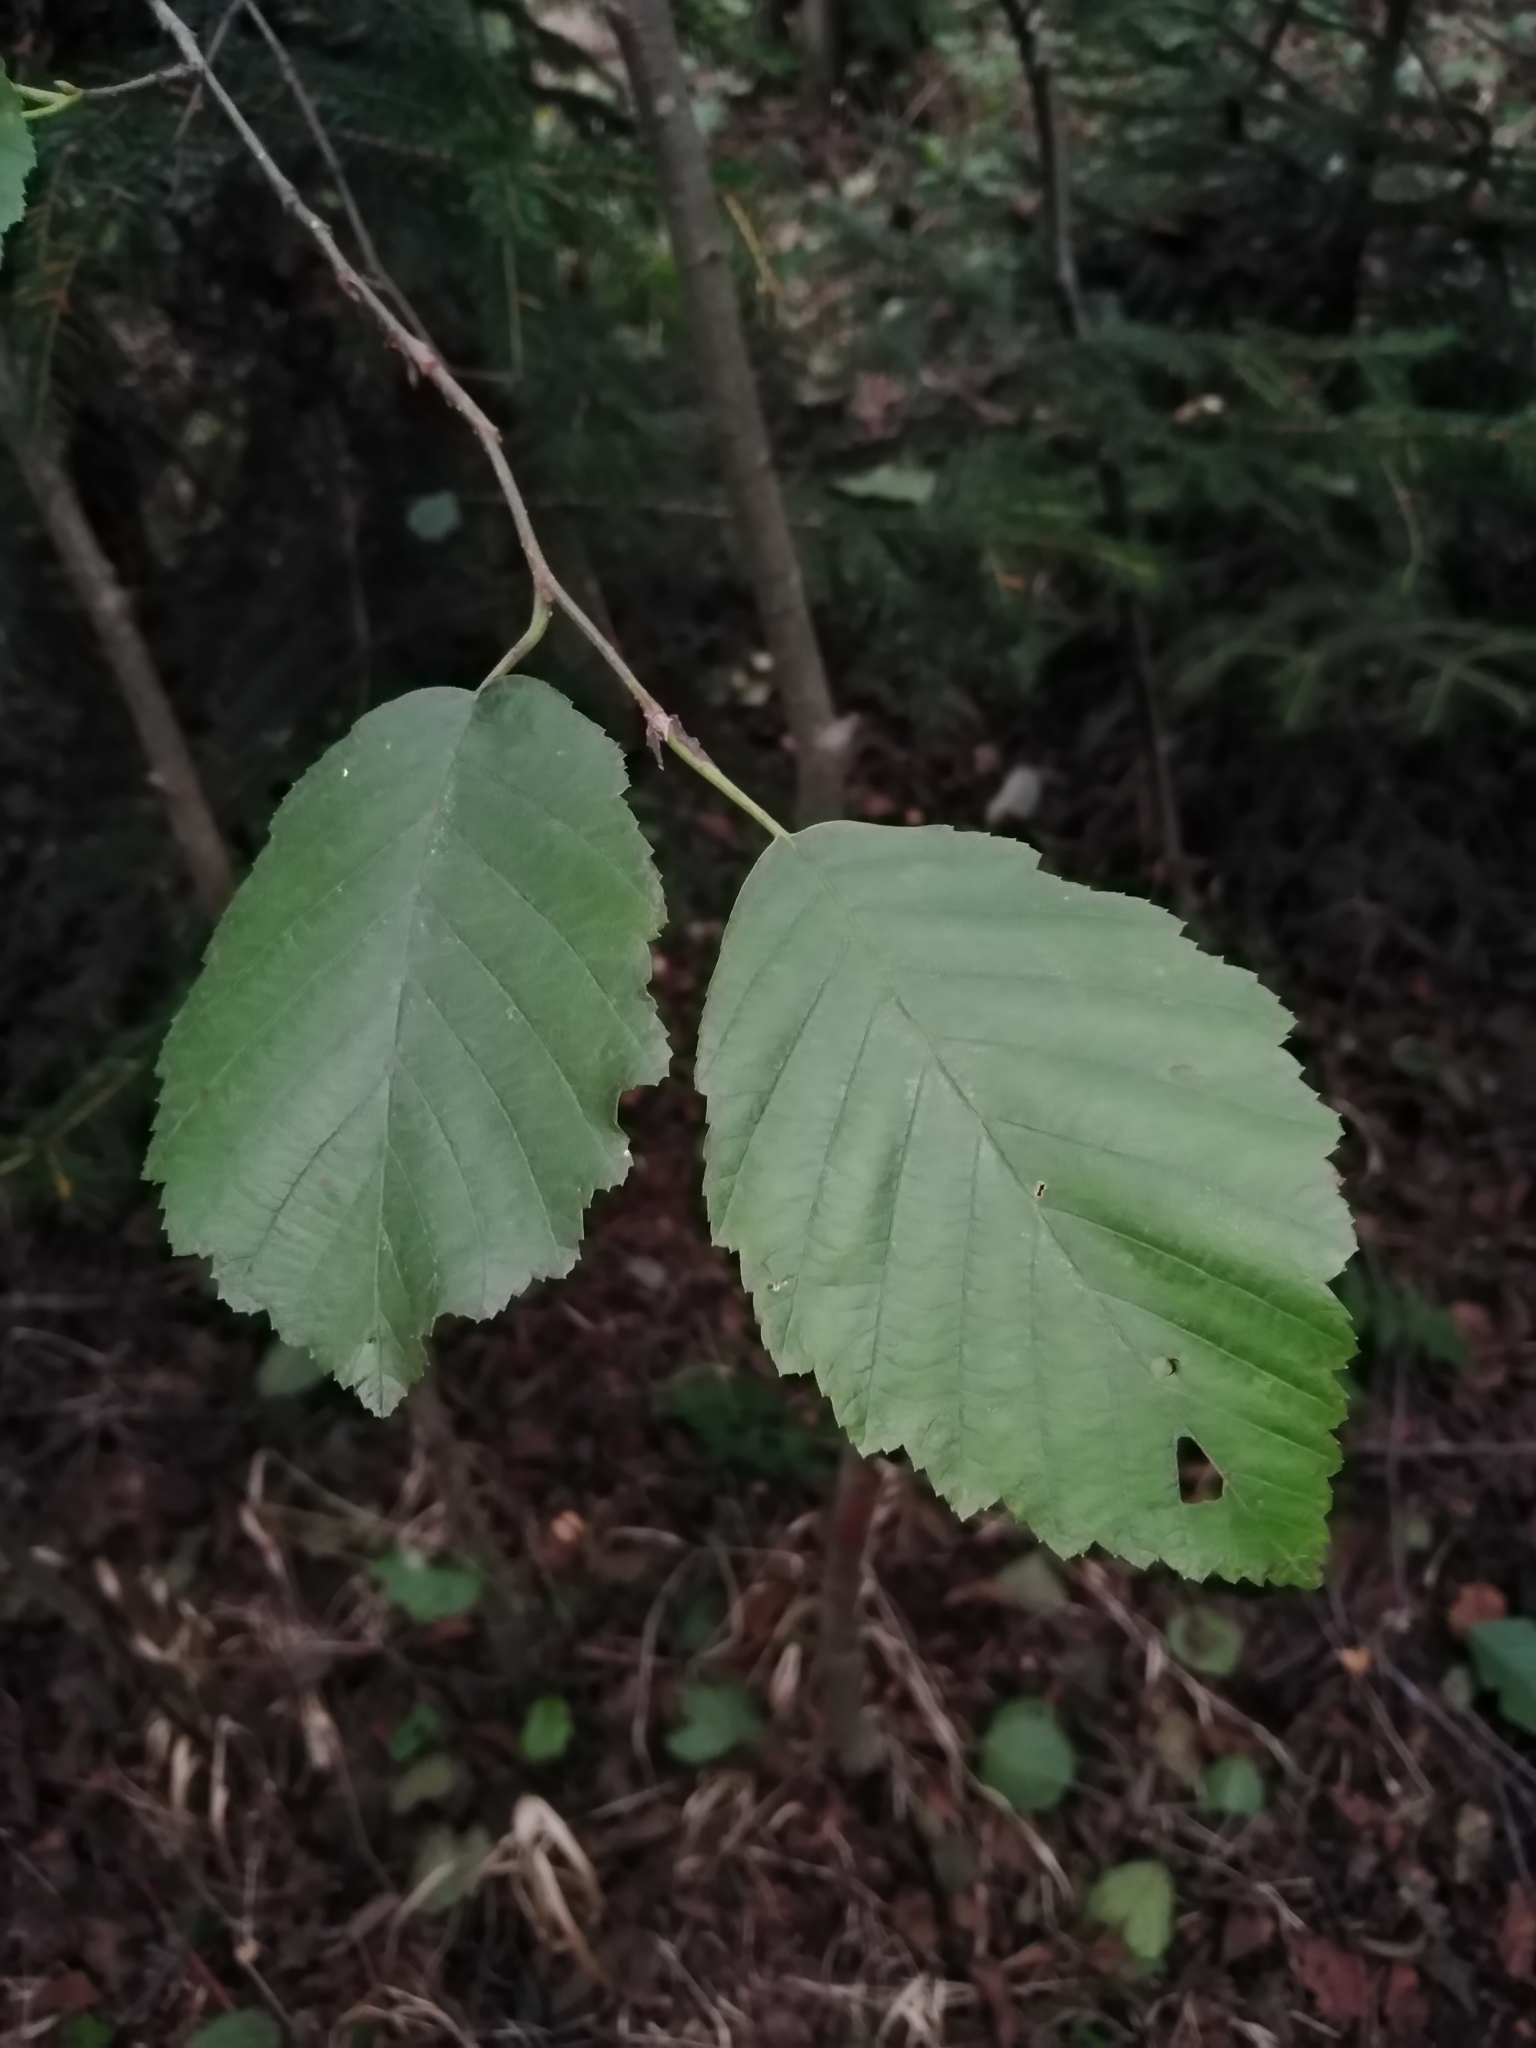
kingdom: Plantae
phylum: Tracheophyta
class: Magnoliopsida
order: Fagales
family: Betulaceae
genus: Alnus
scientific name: Alnus incana
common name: Grey alder
